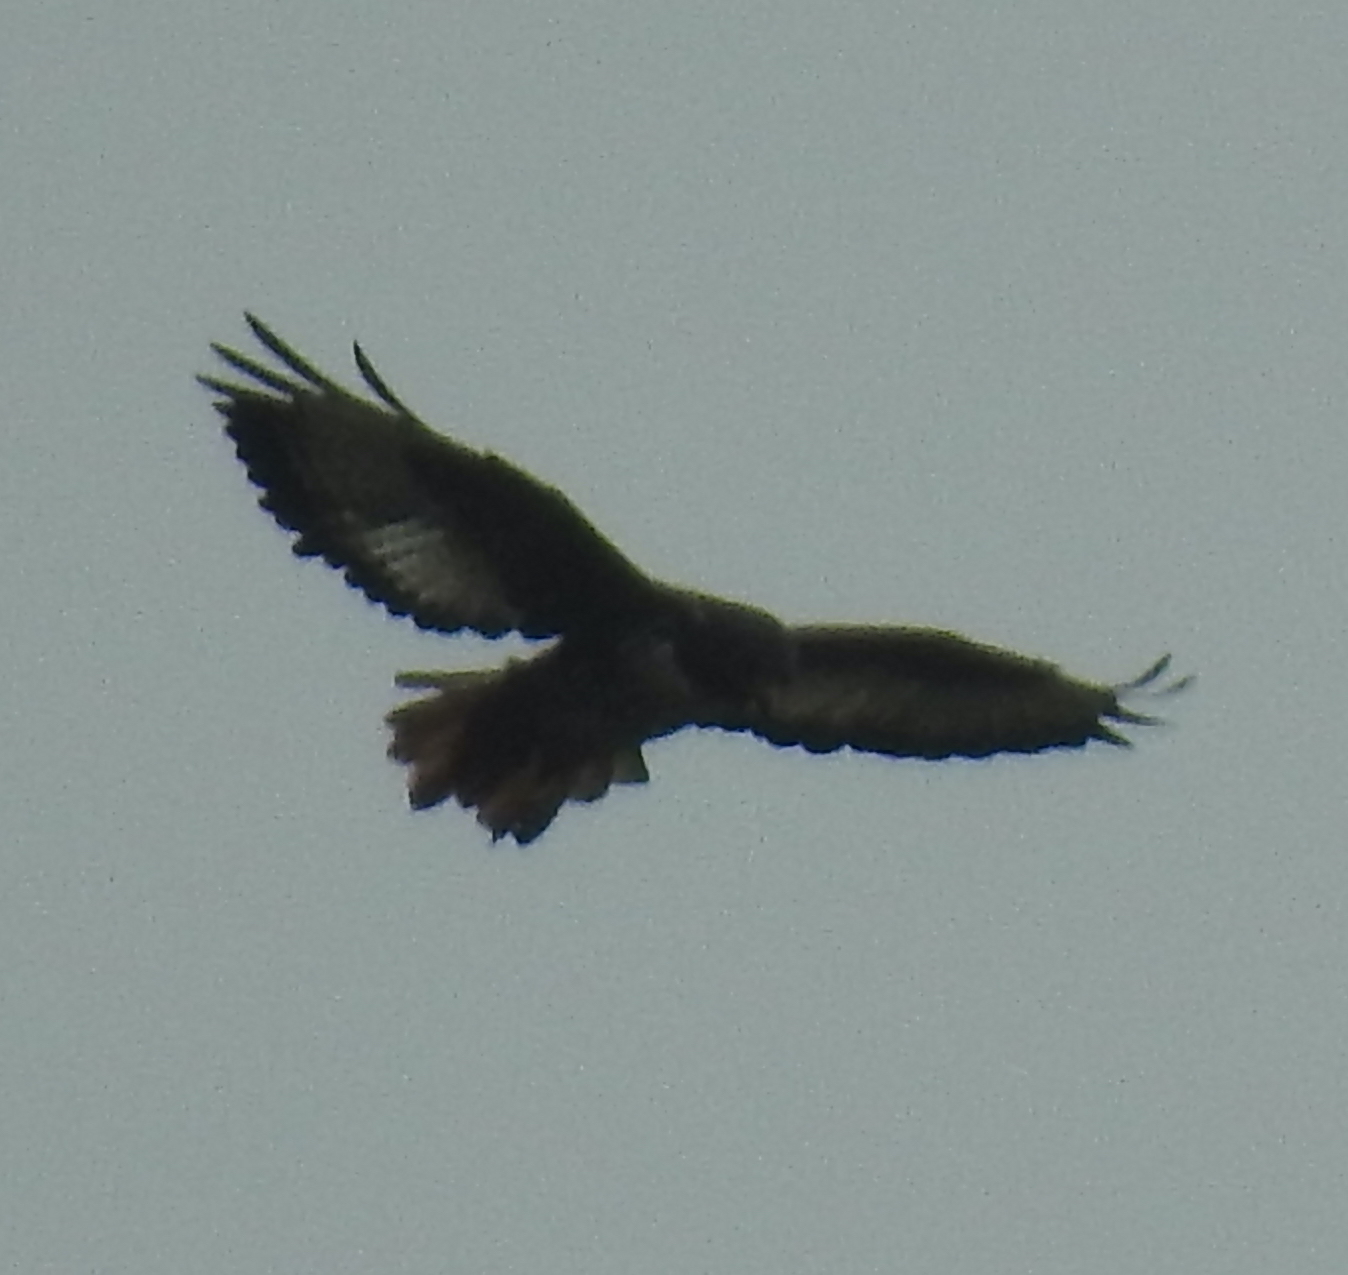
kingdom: Animalia
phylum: Chordata
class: Aves
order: Accipitriformes
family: Accipitridae
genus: Buteo
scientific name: Buteo rufofuscus
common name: Jackal buzzard
